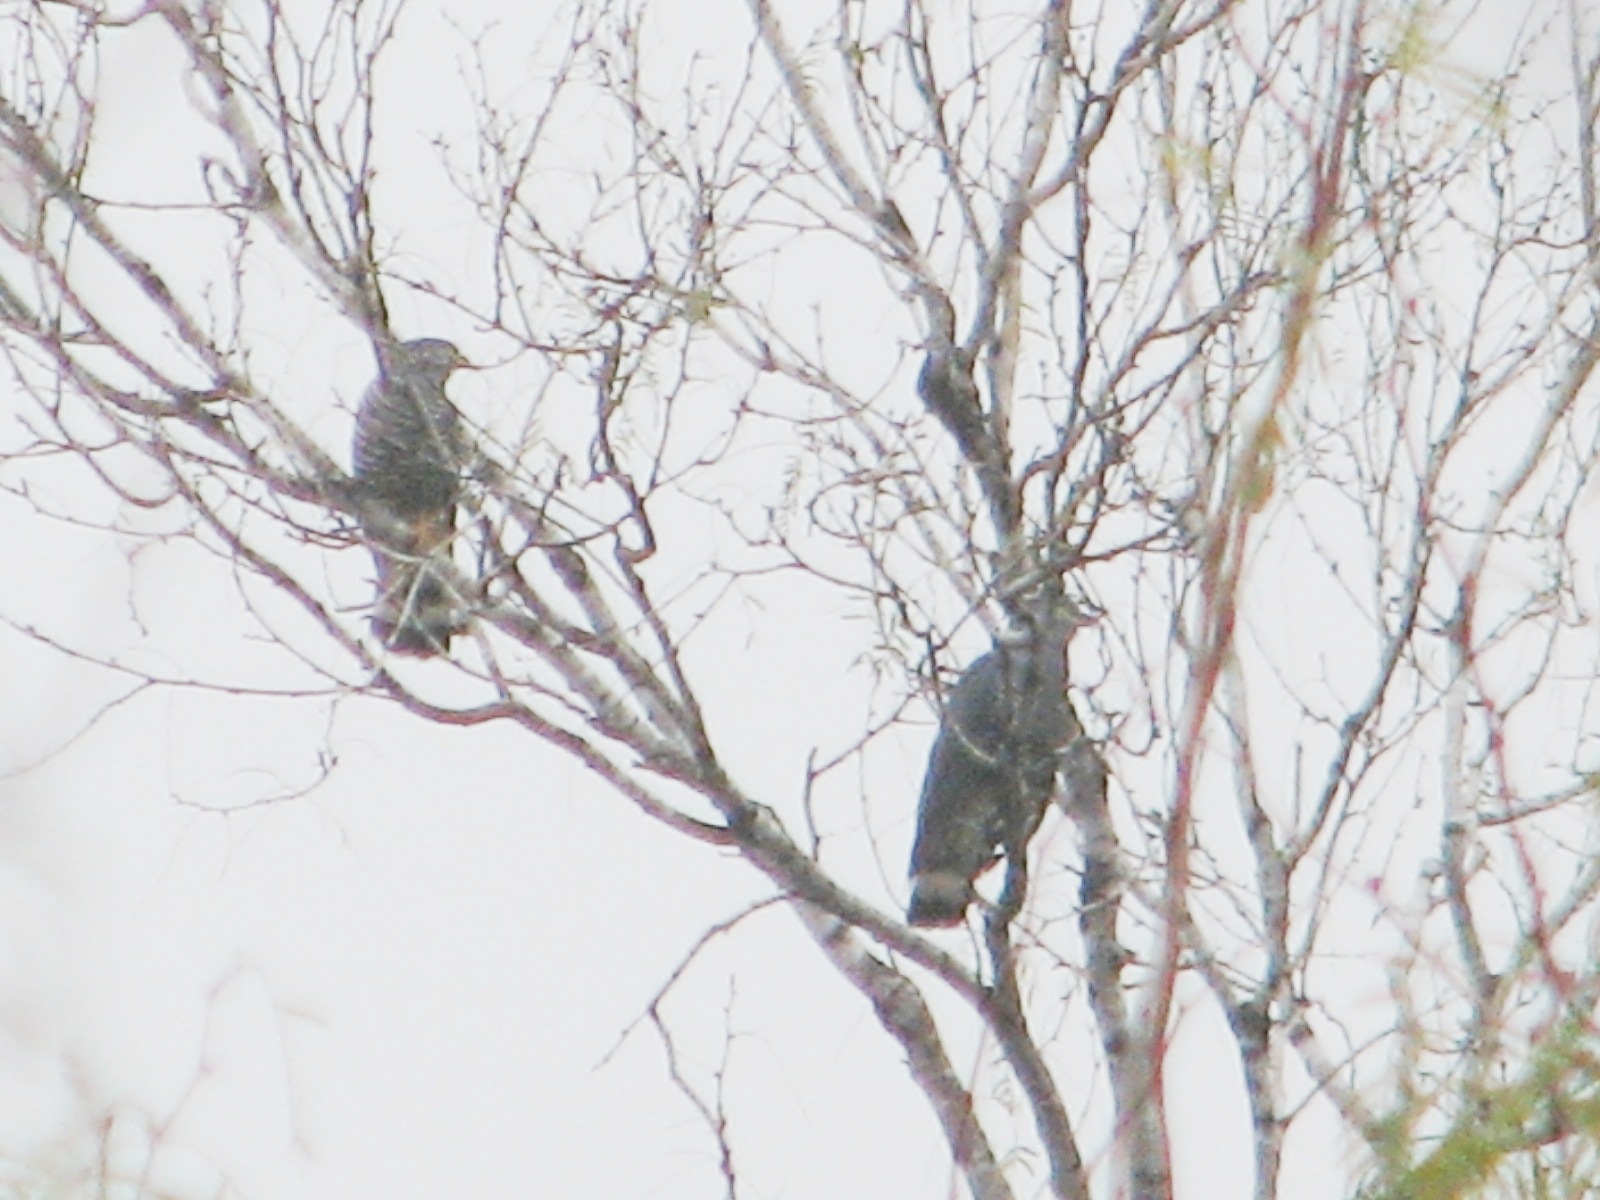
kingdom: Animalia
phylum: Chordata
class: Aves
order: Accipitriformes
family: Accipitridae
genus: Chondrohierax
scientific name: Chondrohierax uncinatus
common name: Hook-billed kite
